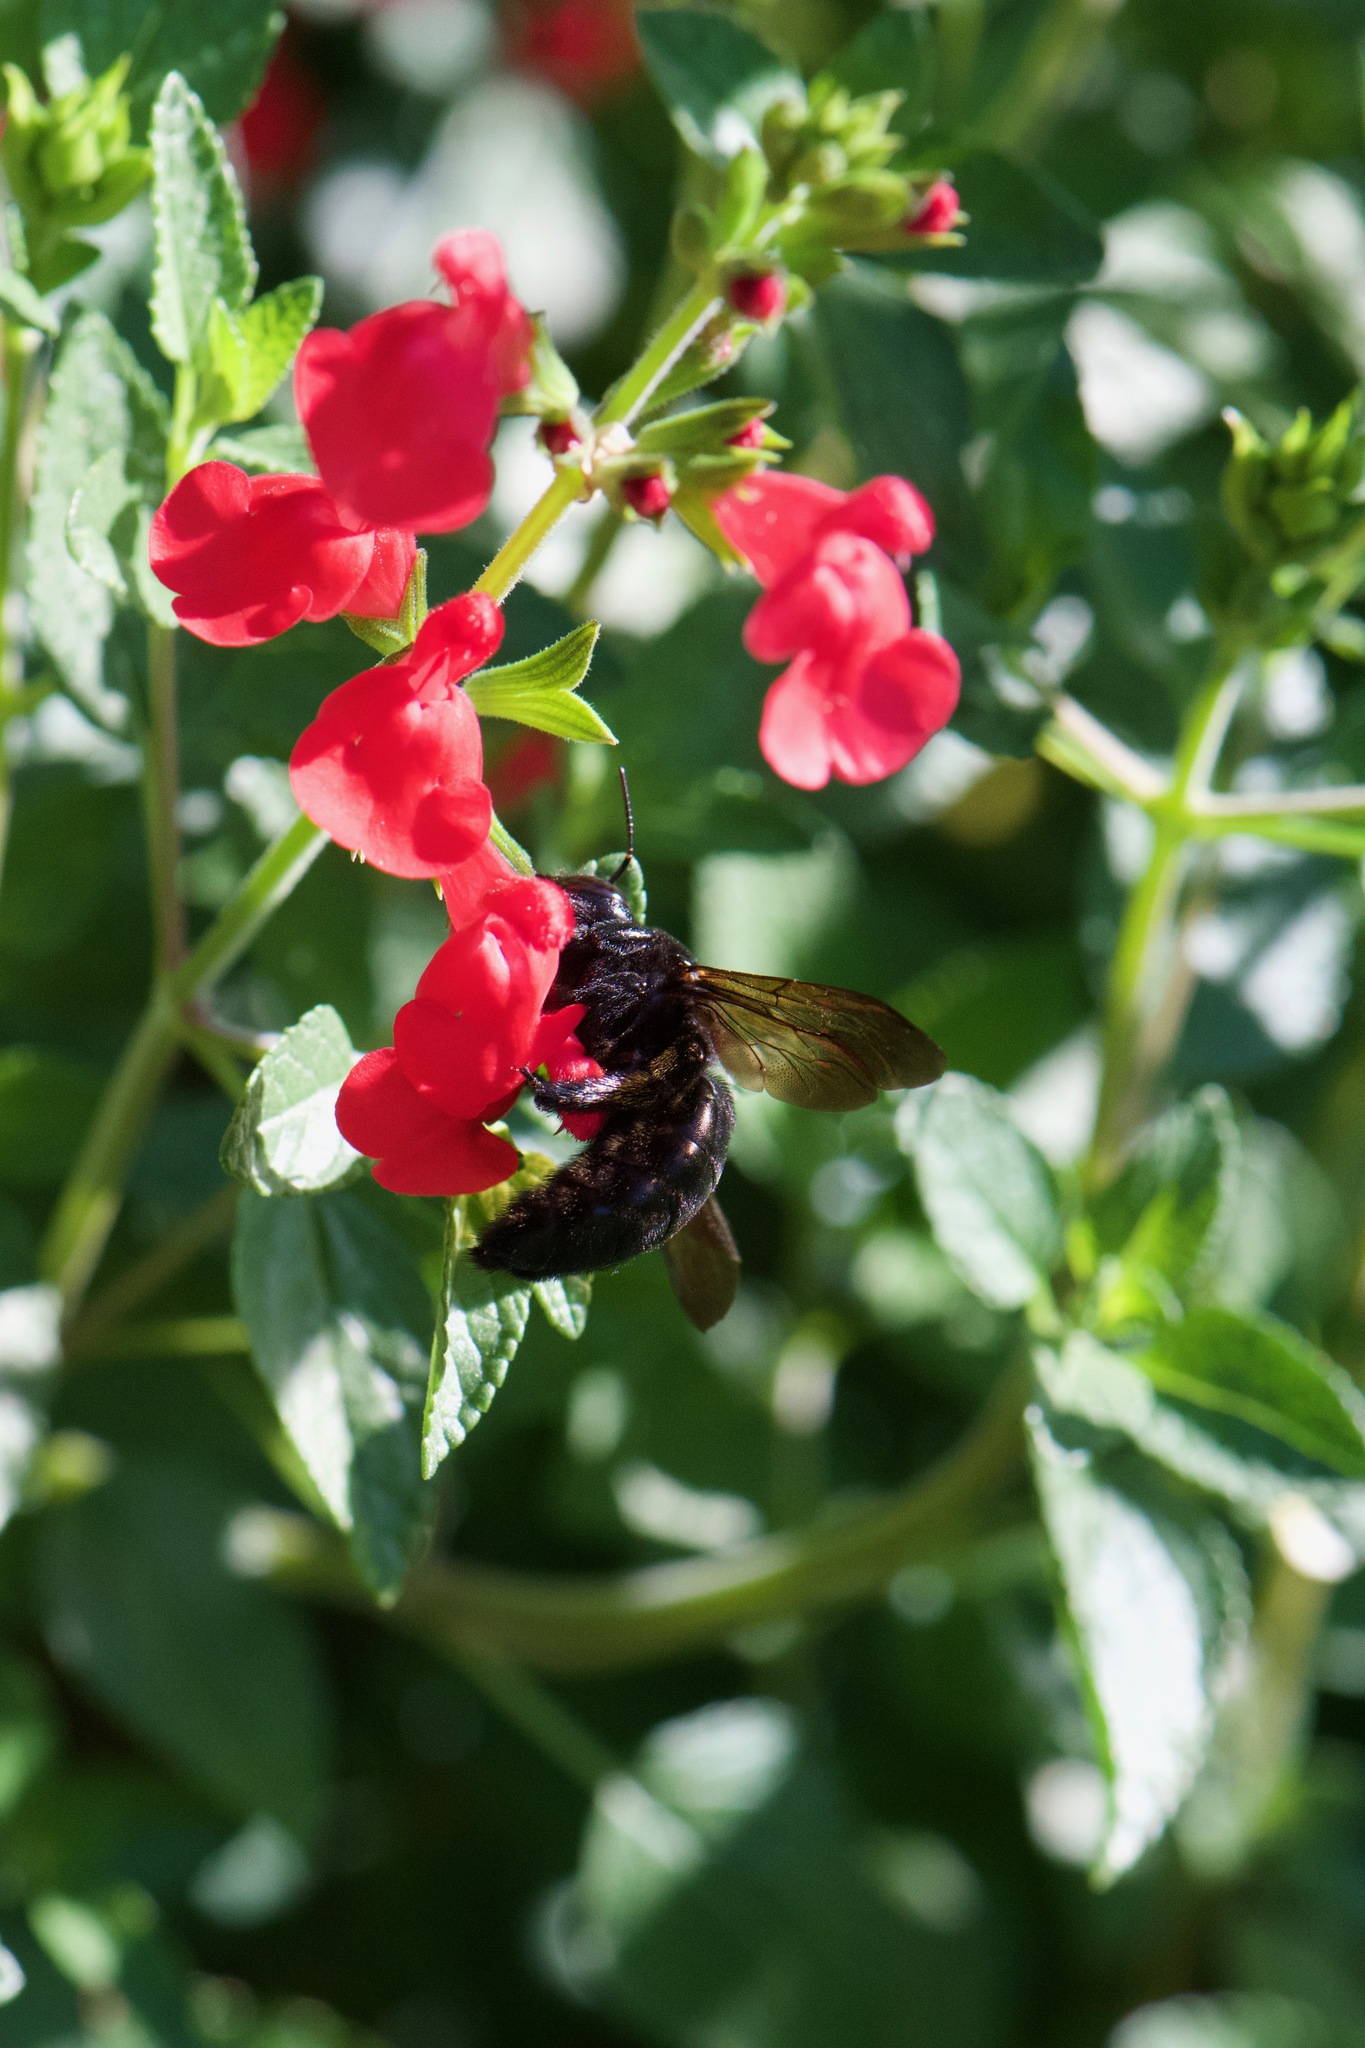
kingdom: Animalia
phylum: Arthropoda
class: Insecta
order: Hymenoptera
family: Apidae
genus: Xylocopa
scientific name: Xylocopa sonorina
